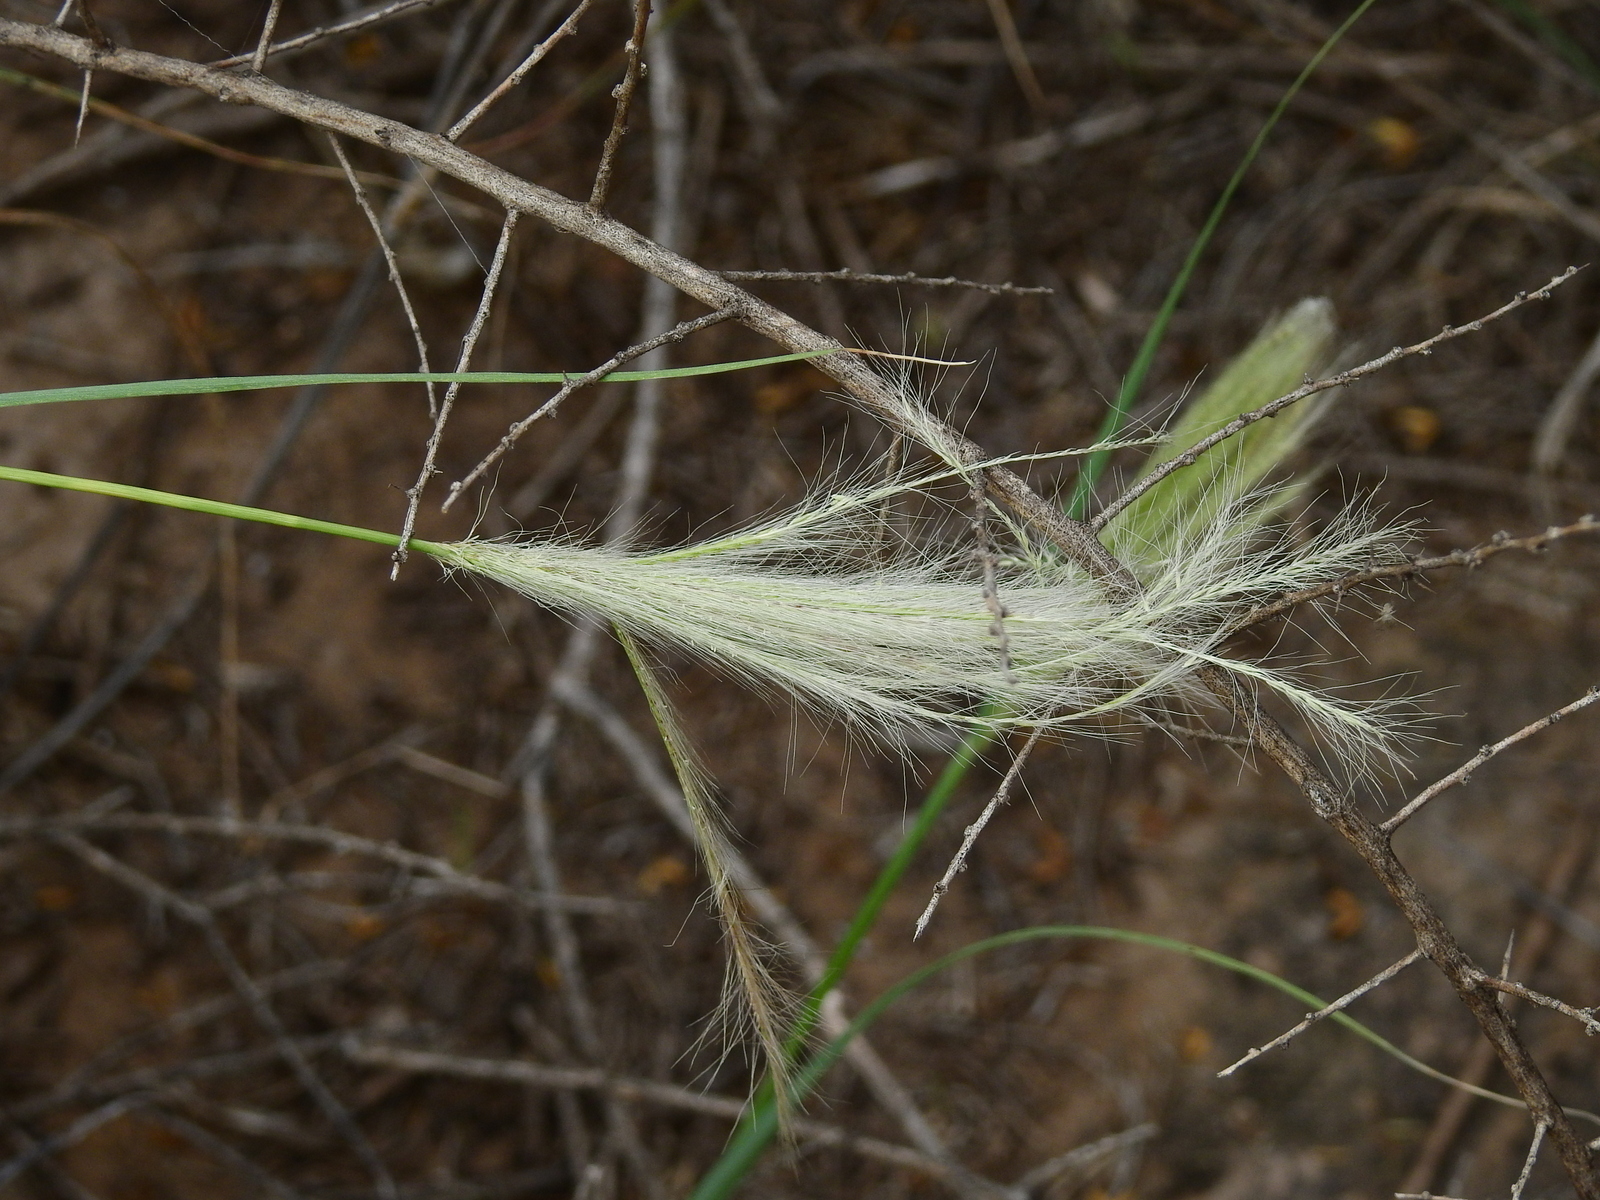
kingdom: Plantae
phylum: Tracheophyta
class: Liliopsida
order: Poales
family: Poaceae
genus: Leptochloa
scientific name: Leptochloa crinita
